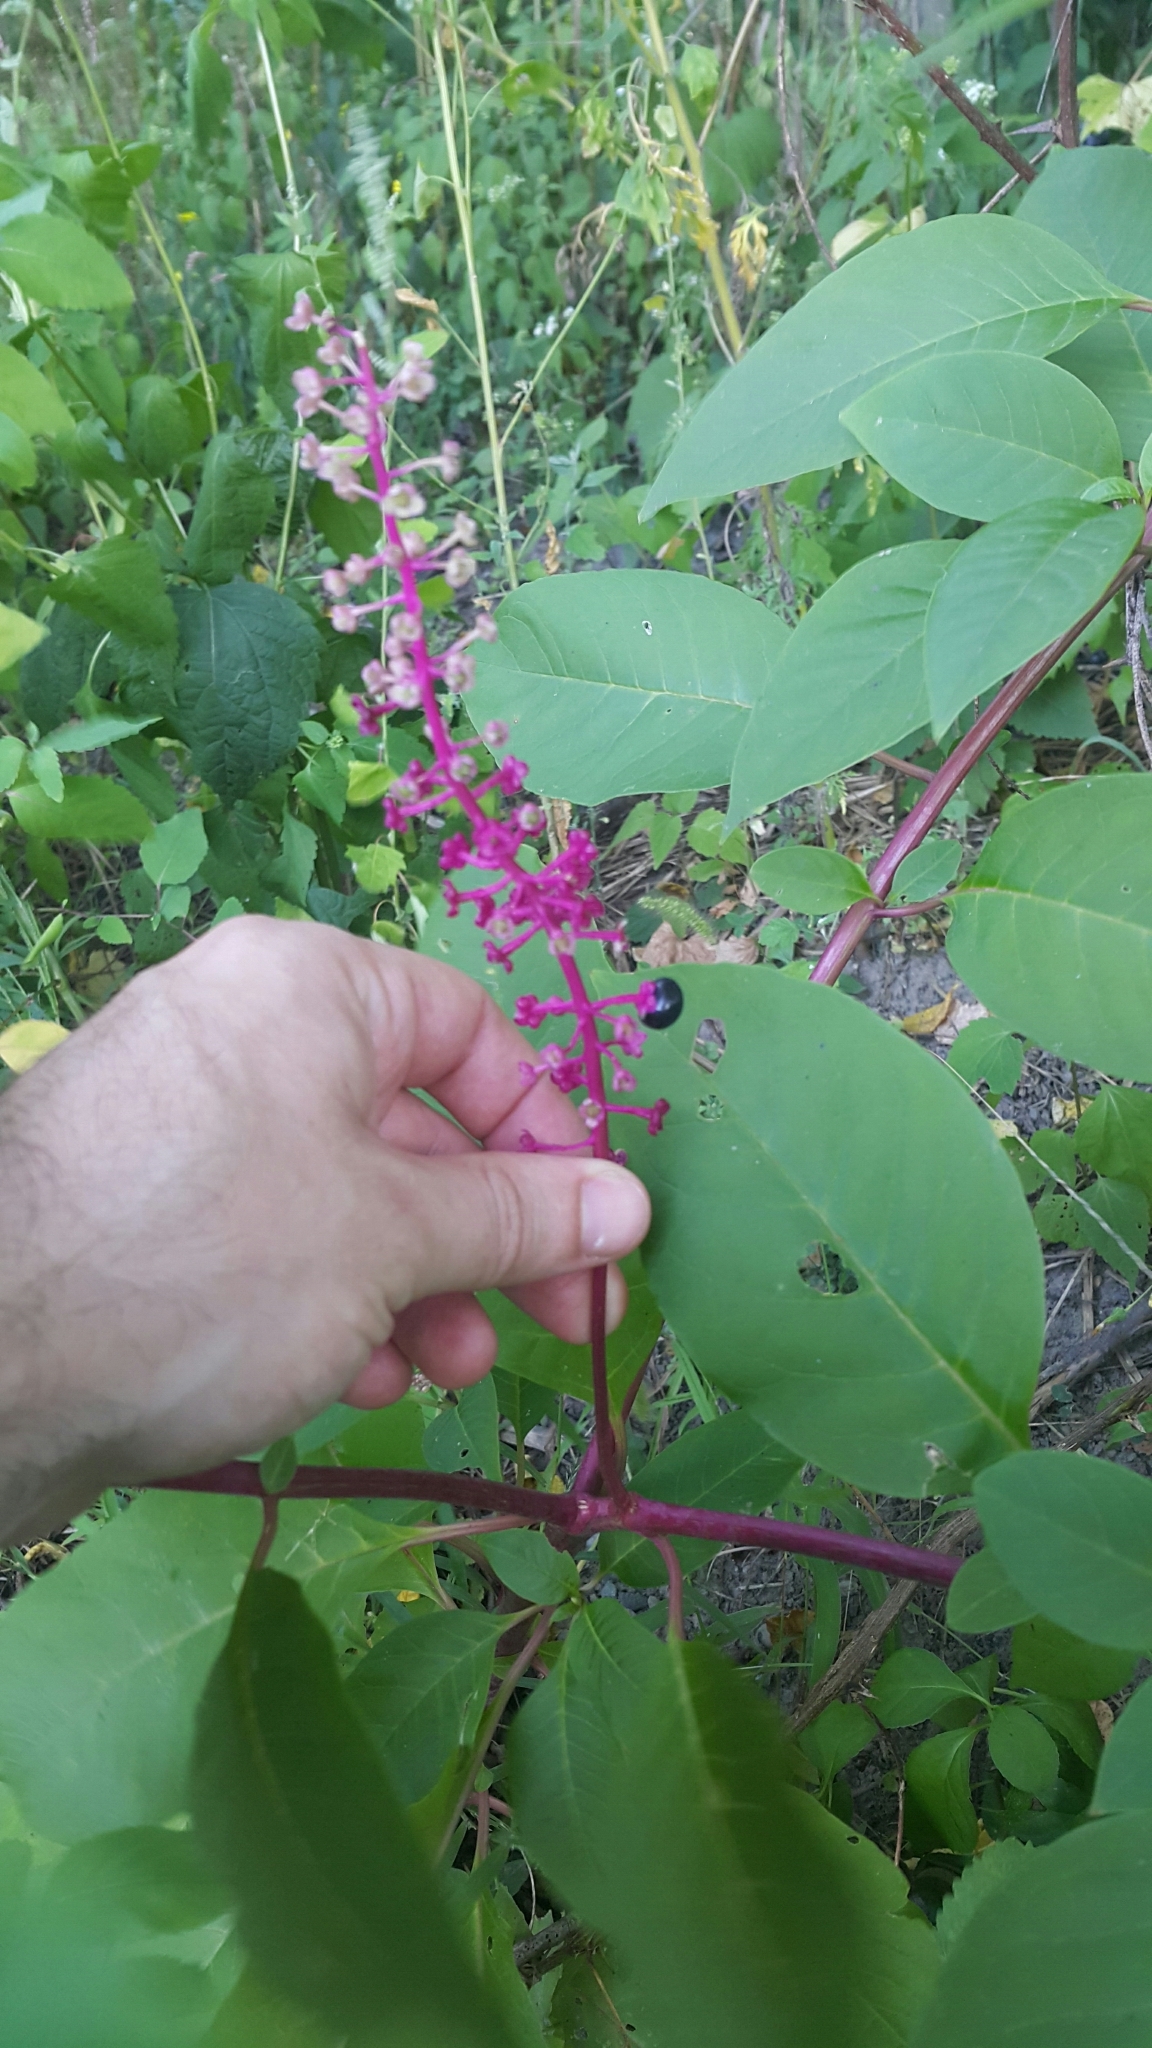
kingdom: Plantae
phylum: Tracheophyta
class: Magnoliopsida
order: Caryophyllales
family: Phytolaccaceae
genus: Phytolacca
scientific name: Phytolacca americana
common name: American pokeweed
